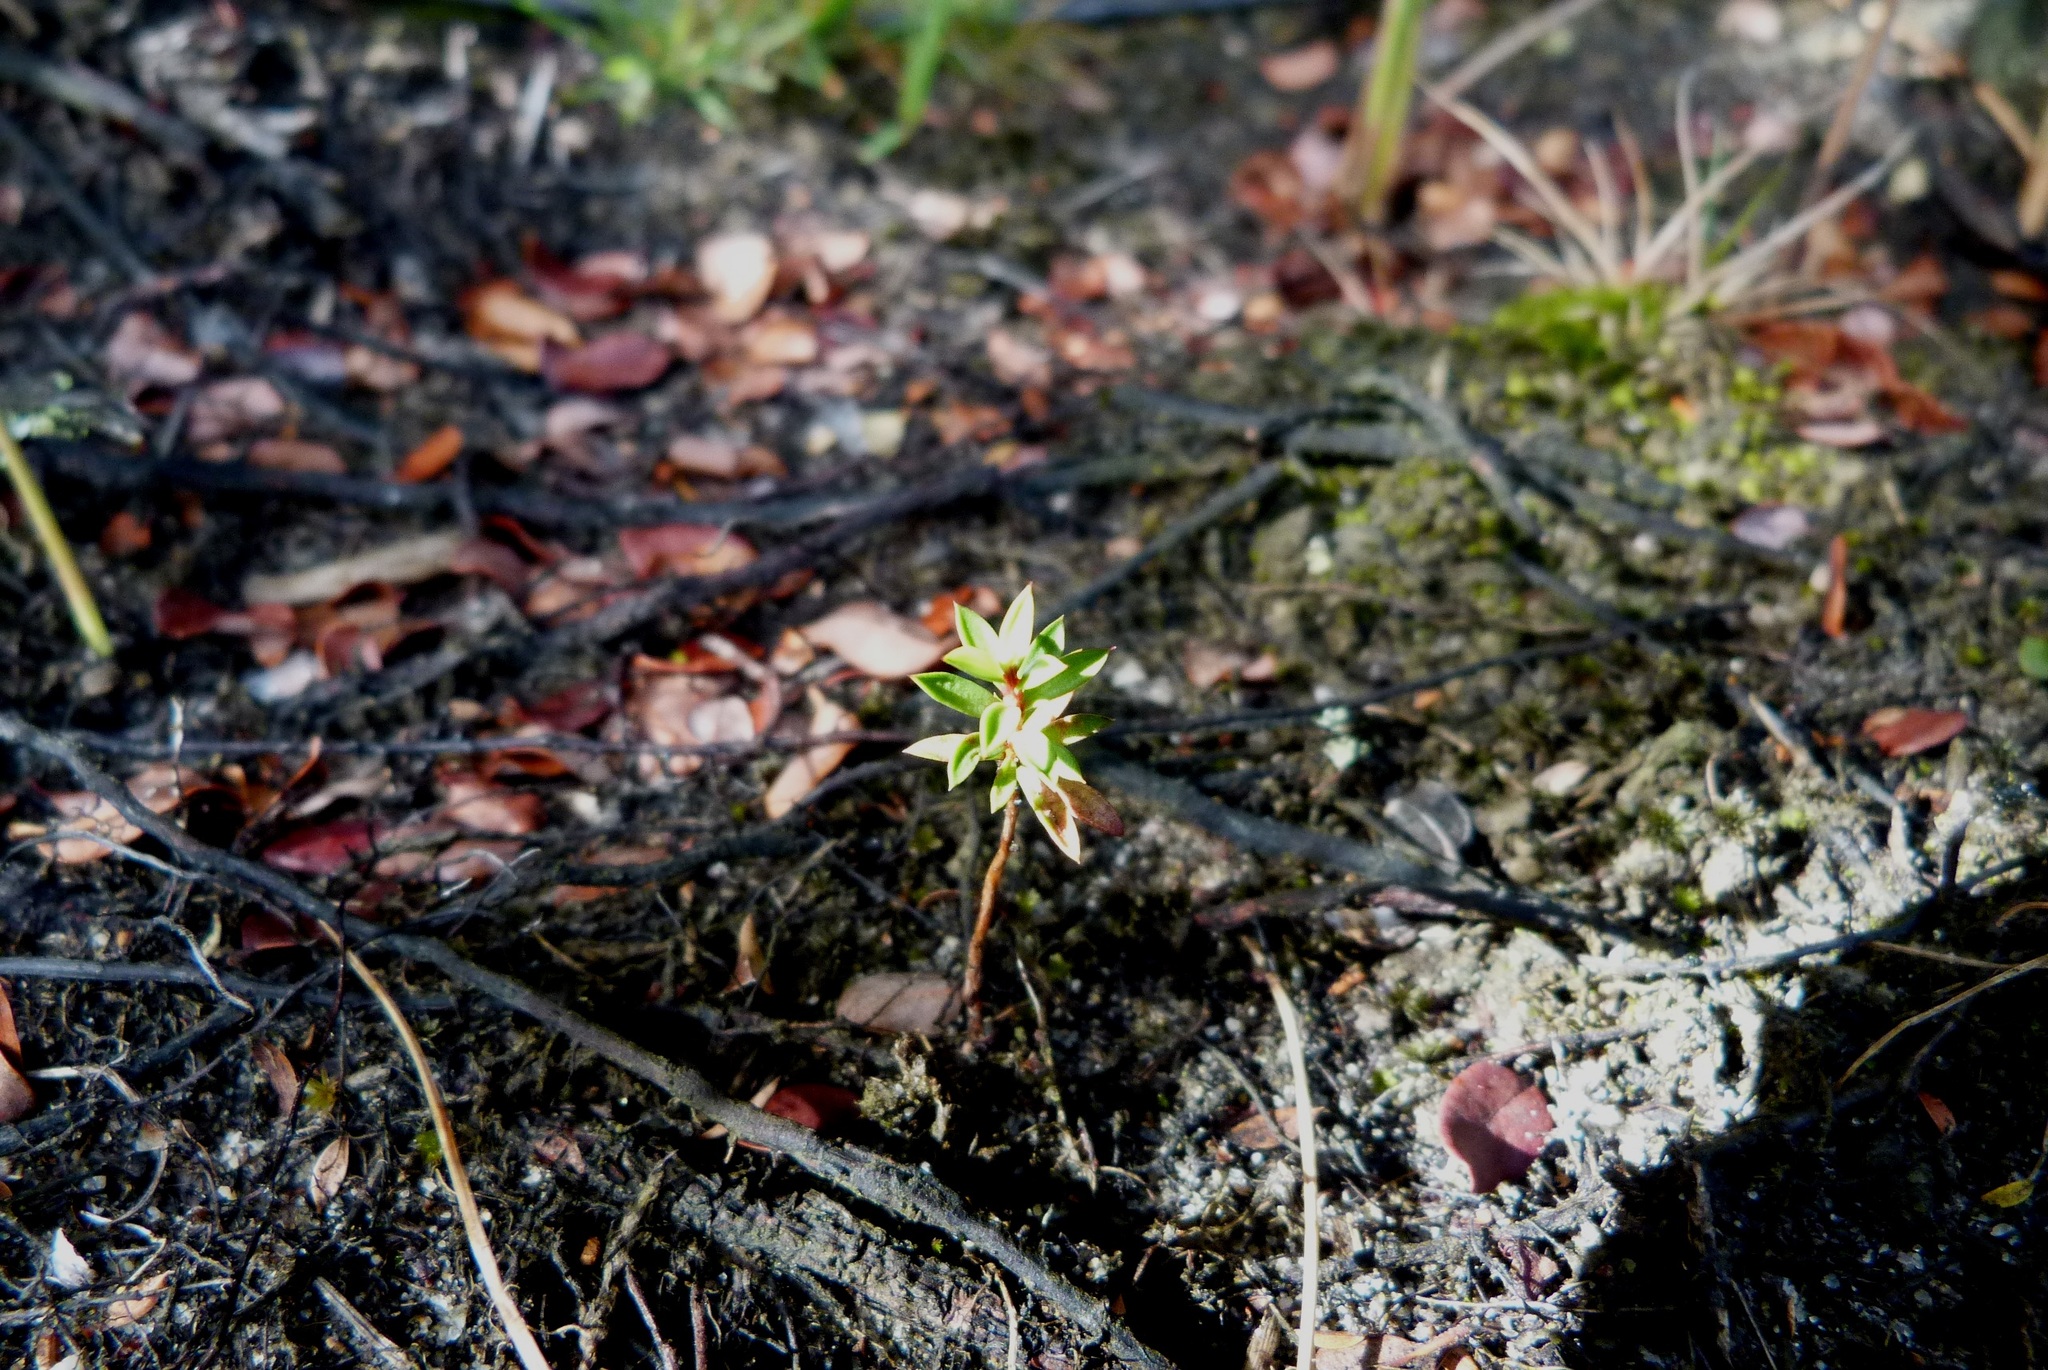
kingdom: Plantae
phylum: Tracheophyta
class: Magnoliopsida
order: Myrtales
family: Myrtaceae
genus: Leptospermum
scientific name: Leptospermum scoparium
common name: Broom tea-tree
